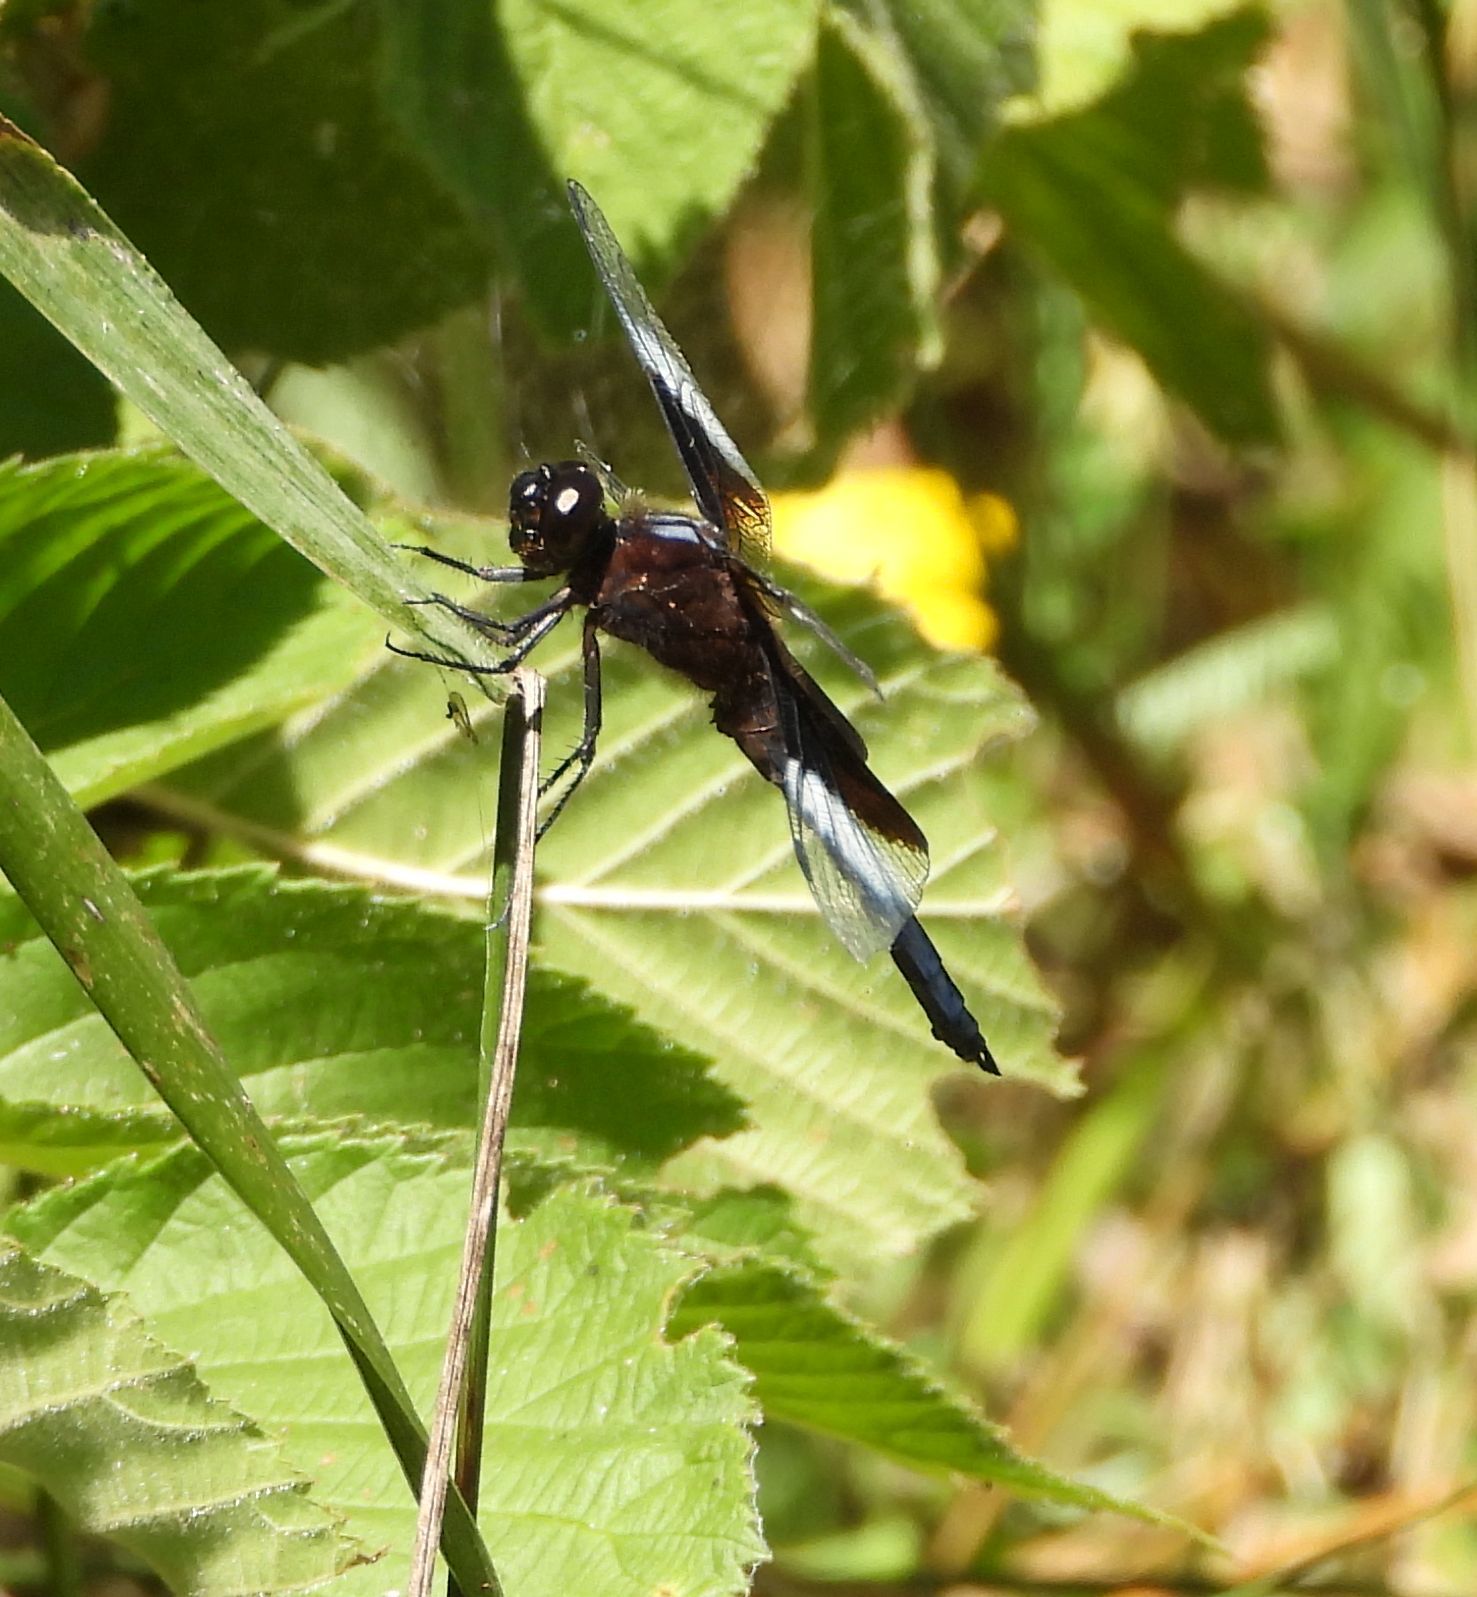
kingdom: Animalia
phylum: Arthropoda
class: Insecta
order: Odonata
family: Libellulidae
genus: Libellula
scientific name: Libellula luctuosa
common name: Widow skimmer
